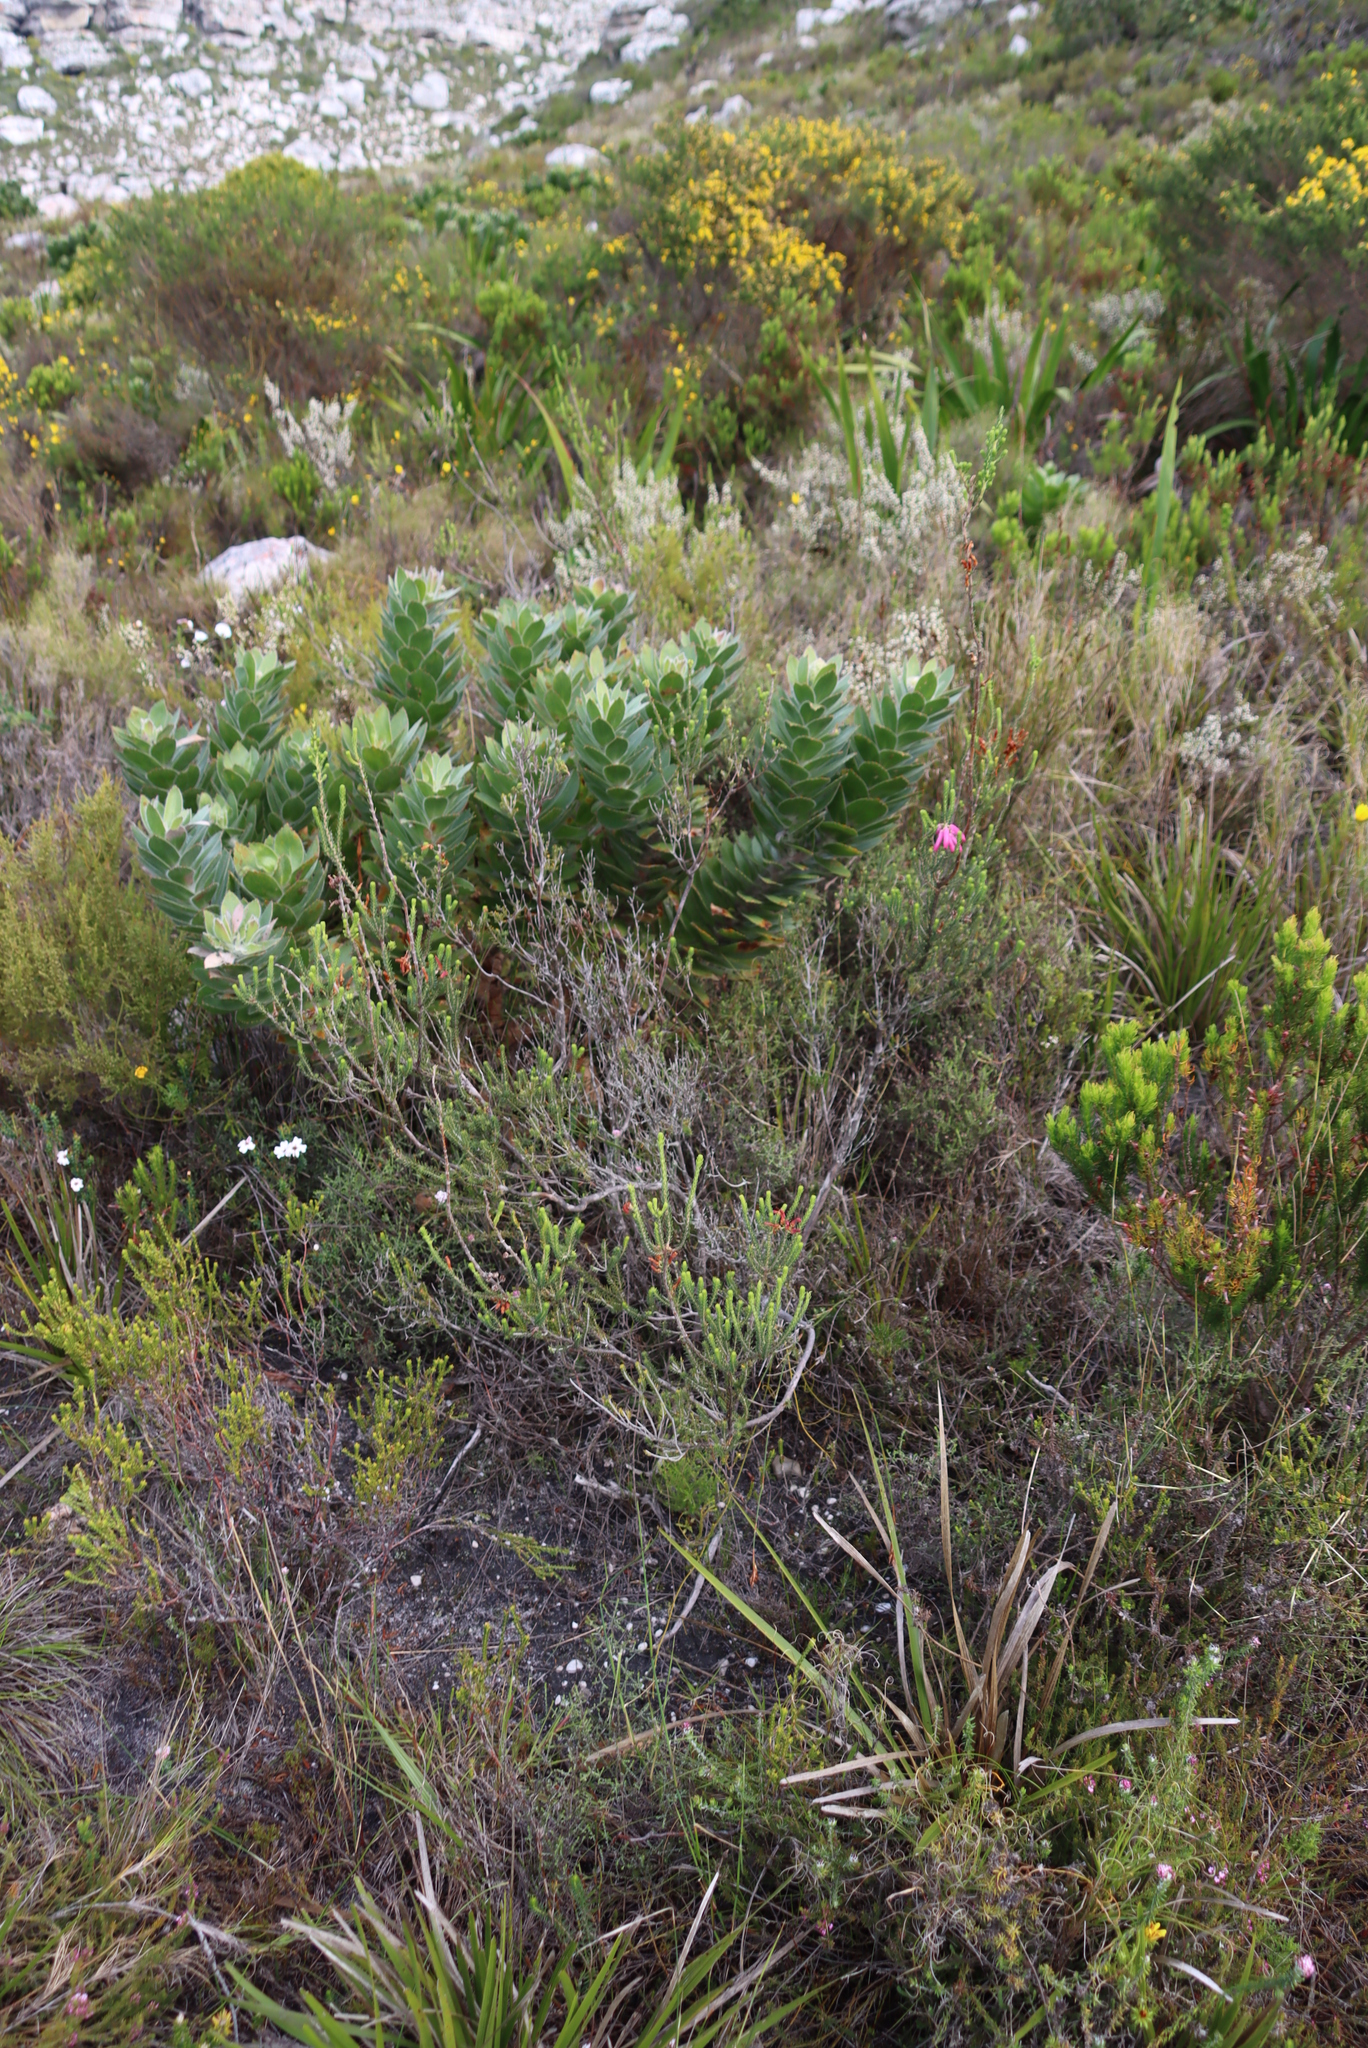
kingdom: Plantae
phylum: Tracheophyta
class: Magnoliopsida
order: Proteales
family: Proteaceae
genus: Leucospermum
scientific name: Leucospermum conocarpodendron
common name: Tree pincushion
